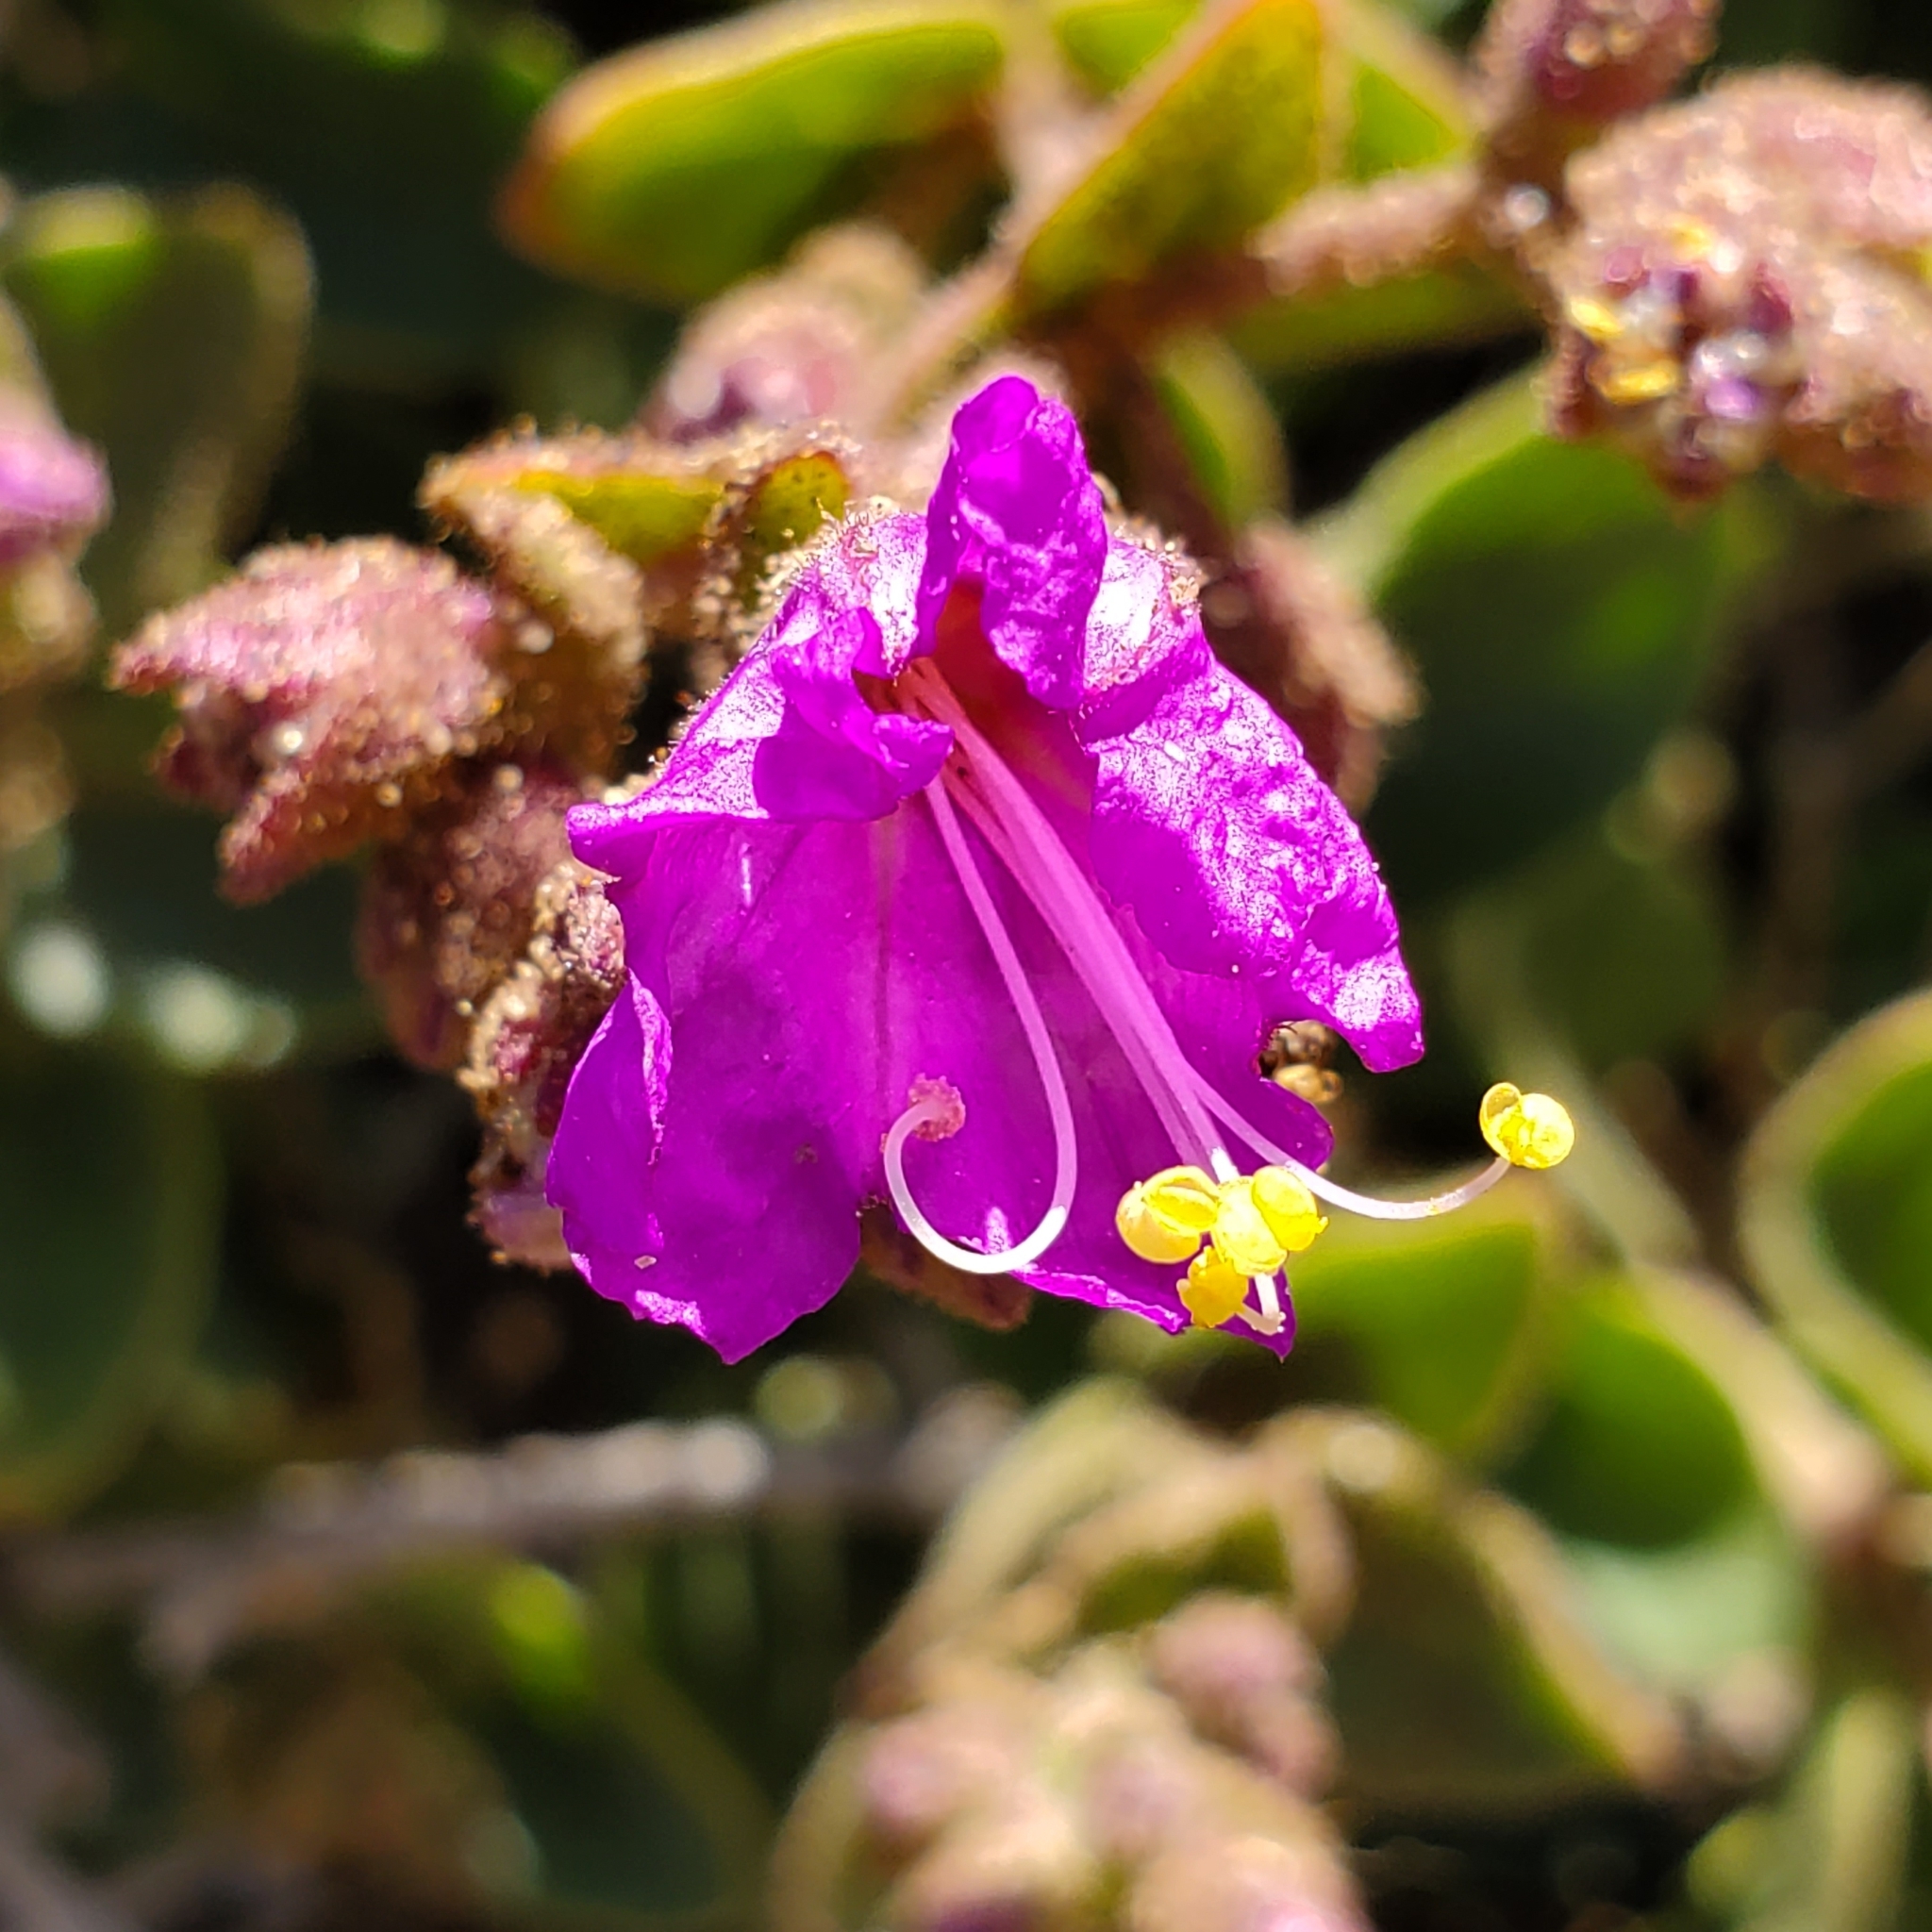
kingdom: Plantae
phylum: Tracheophyta
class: Magnoliopsida
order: Caryophyllales
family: Nyctaginaceae
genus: Mirabilis
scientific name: Mirabilis laevis
